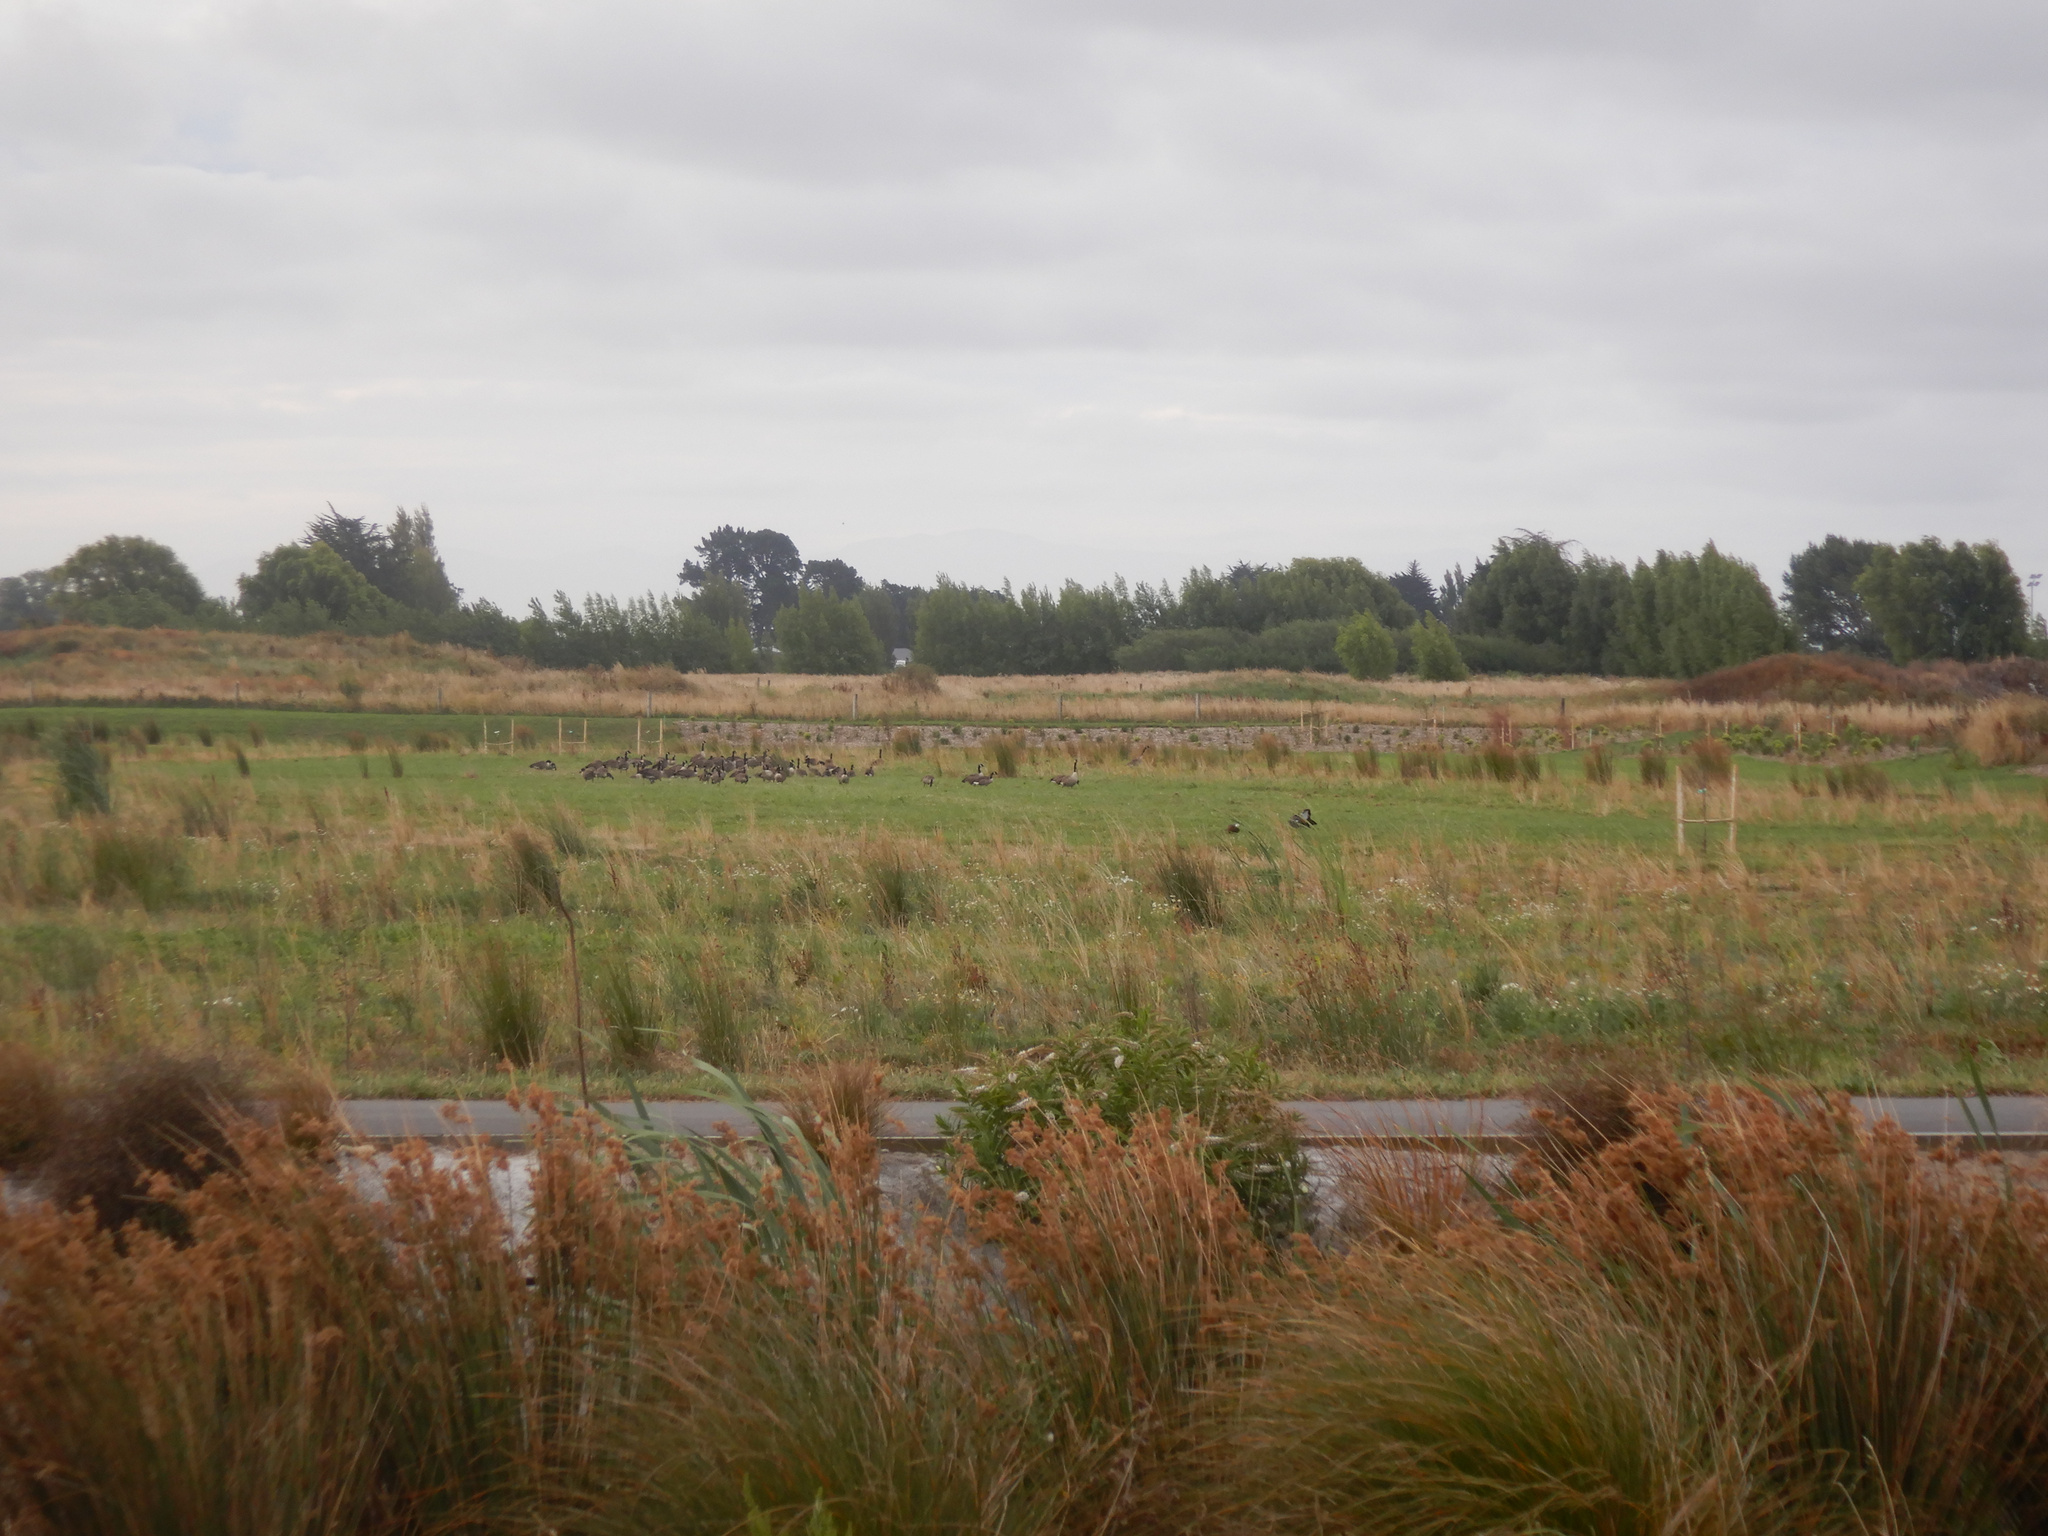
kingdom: Animalia
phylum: Chordata
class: Aves
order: Anseriformes
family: Anatidae
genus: Branta
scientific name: Branta canadensis
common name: Canada goose
